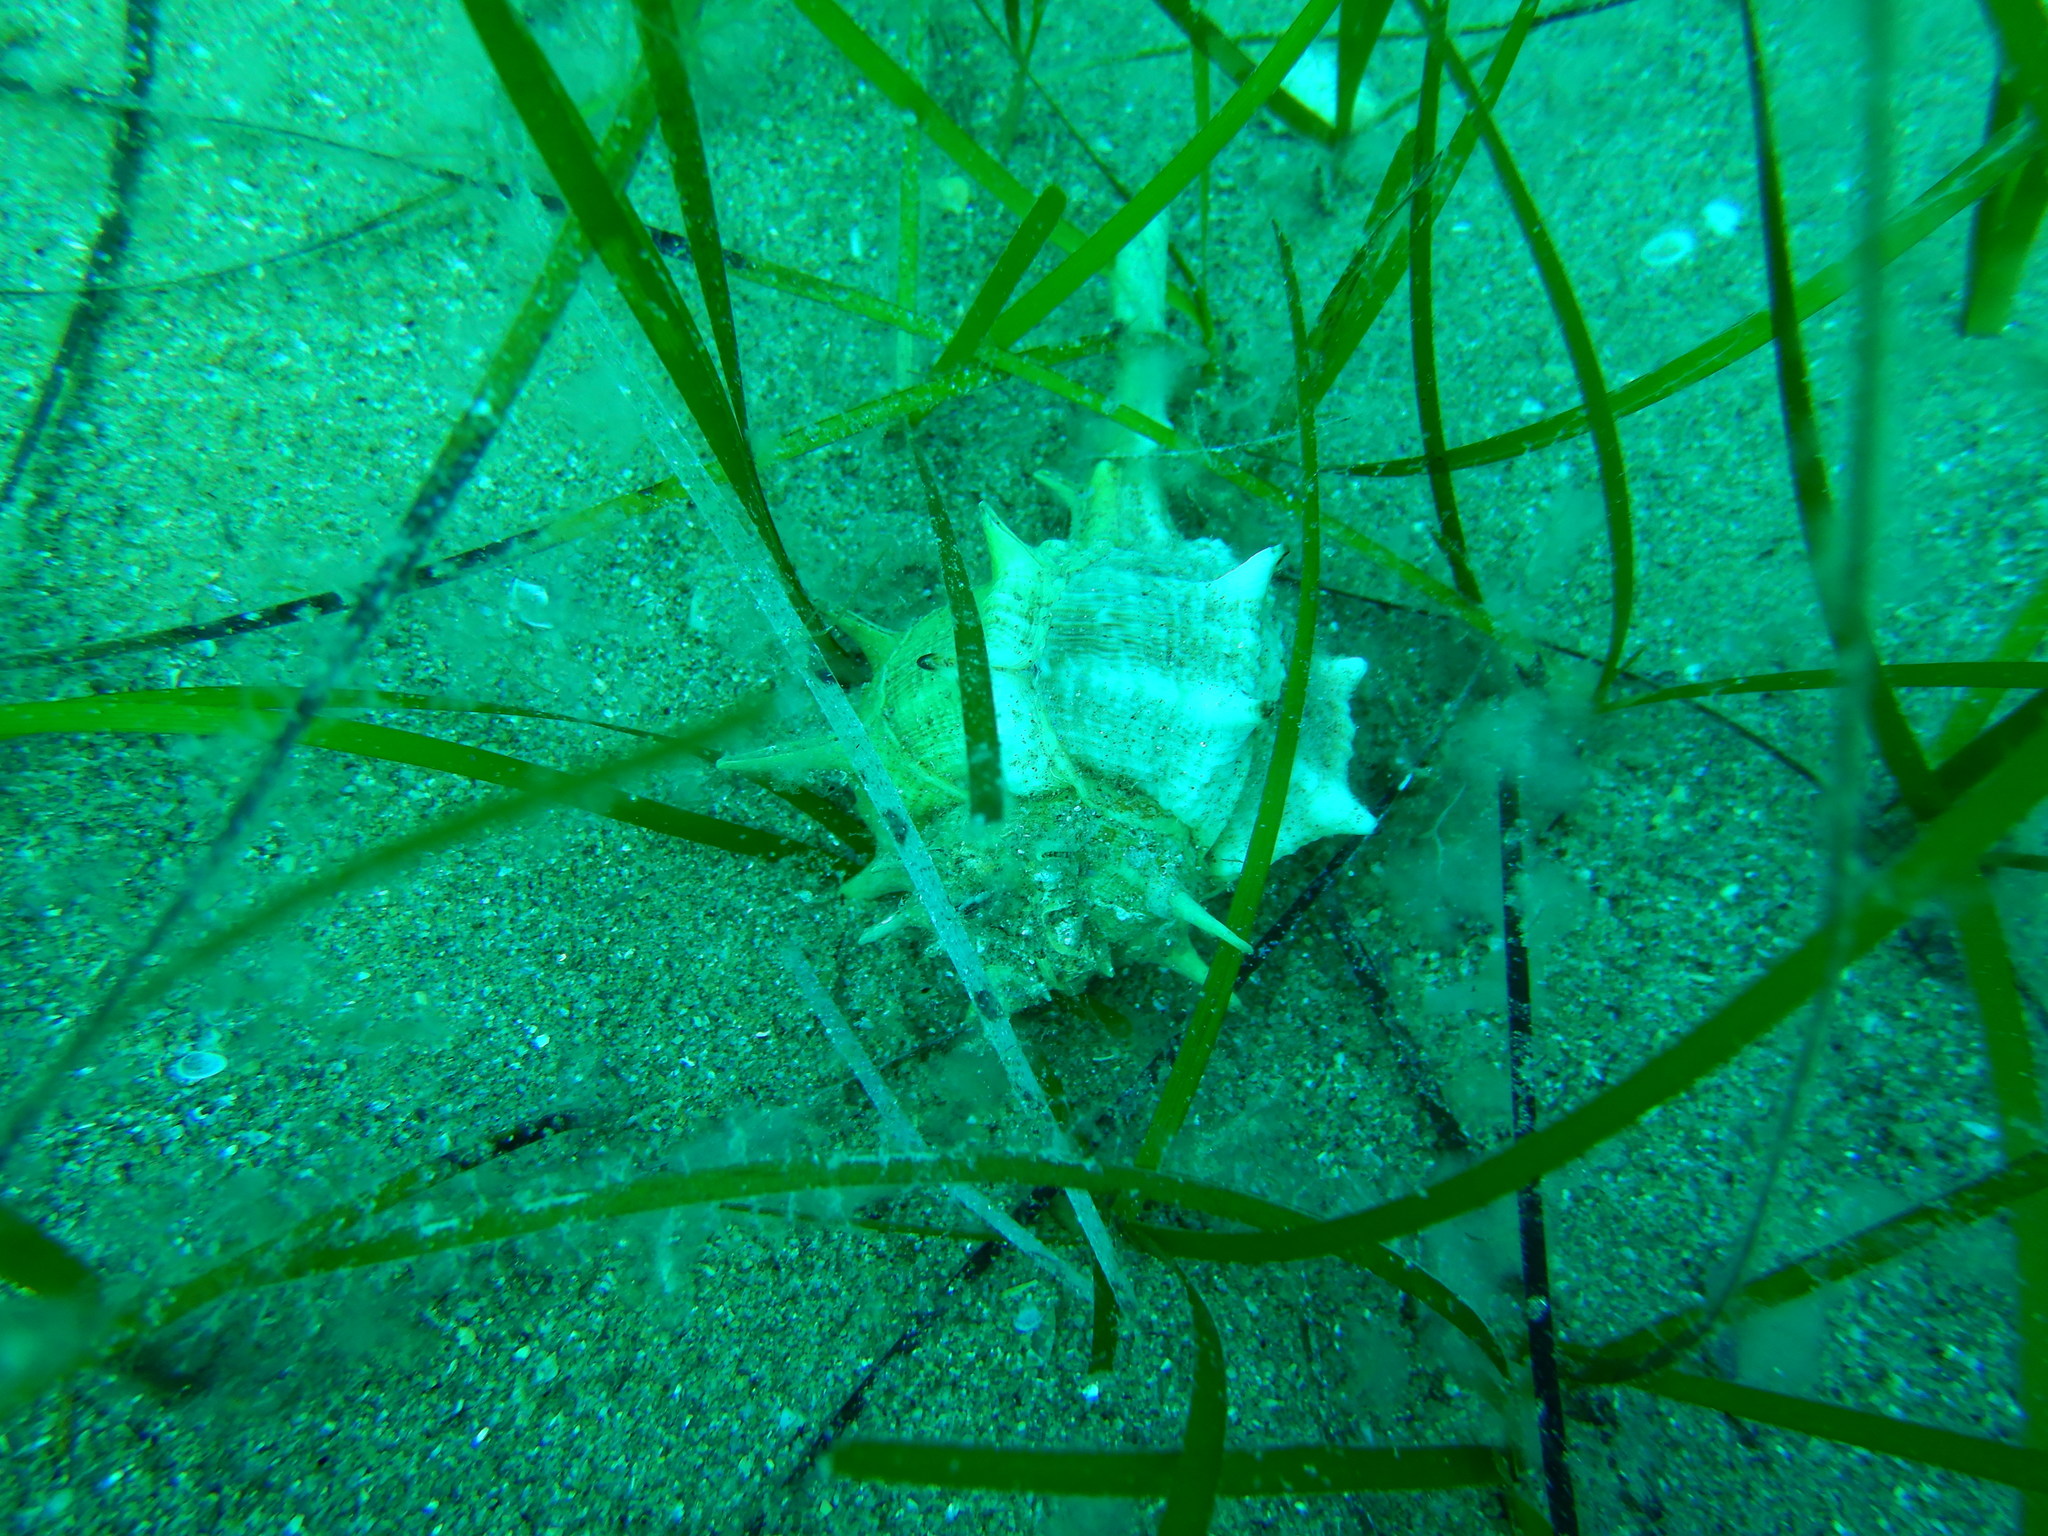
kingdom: Animalia
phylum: Mollusca
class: Gastropoda
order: Neogastropoda
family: Muricidae
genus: Bolinus
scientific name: Bolinus brandaris
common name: Dye murex
